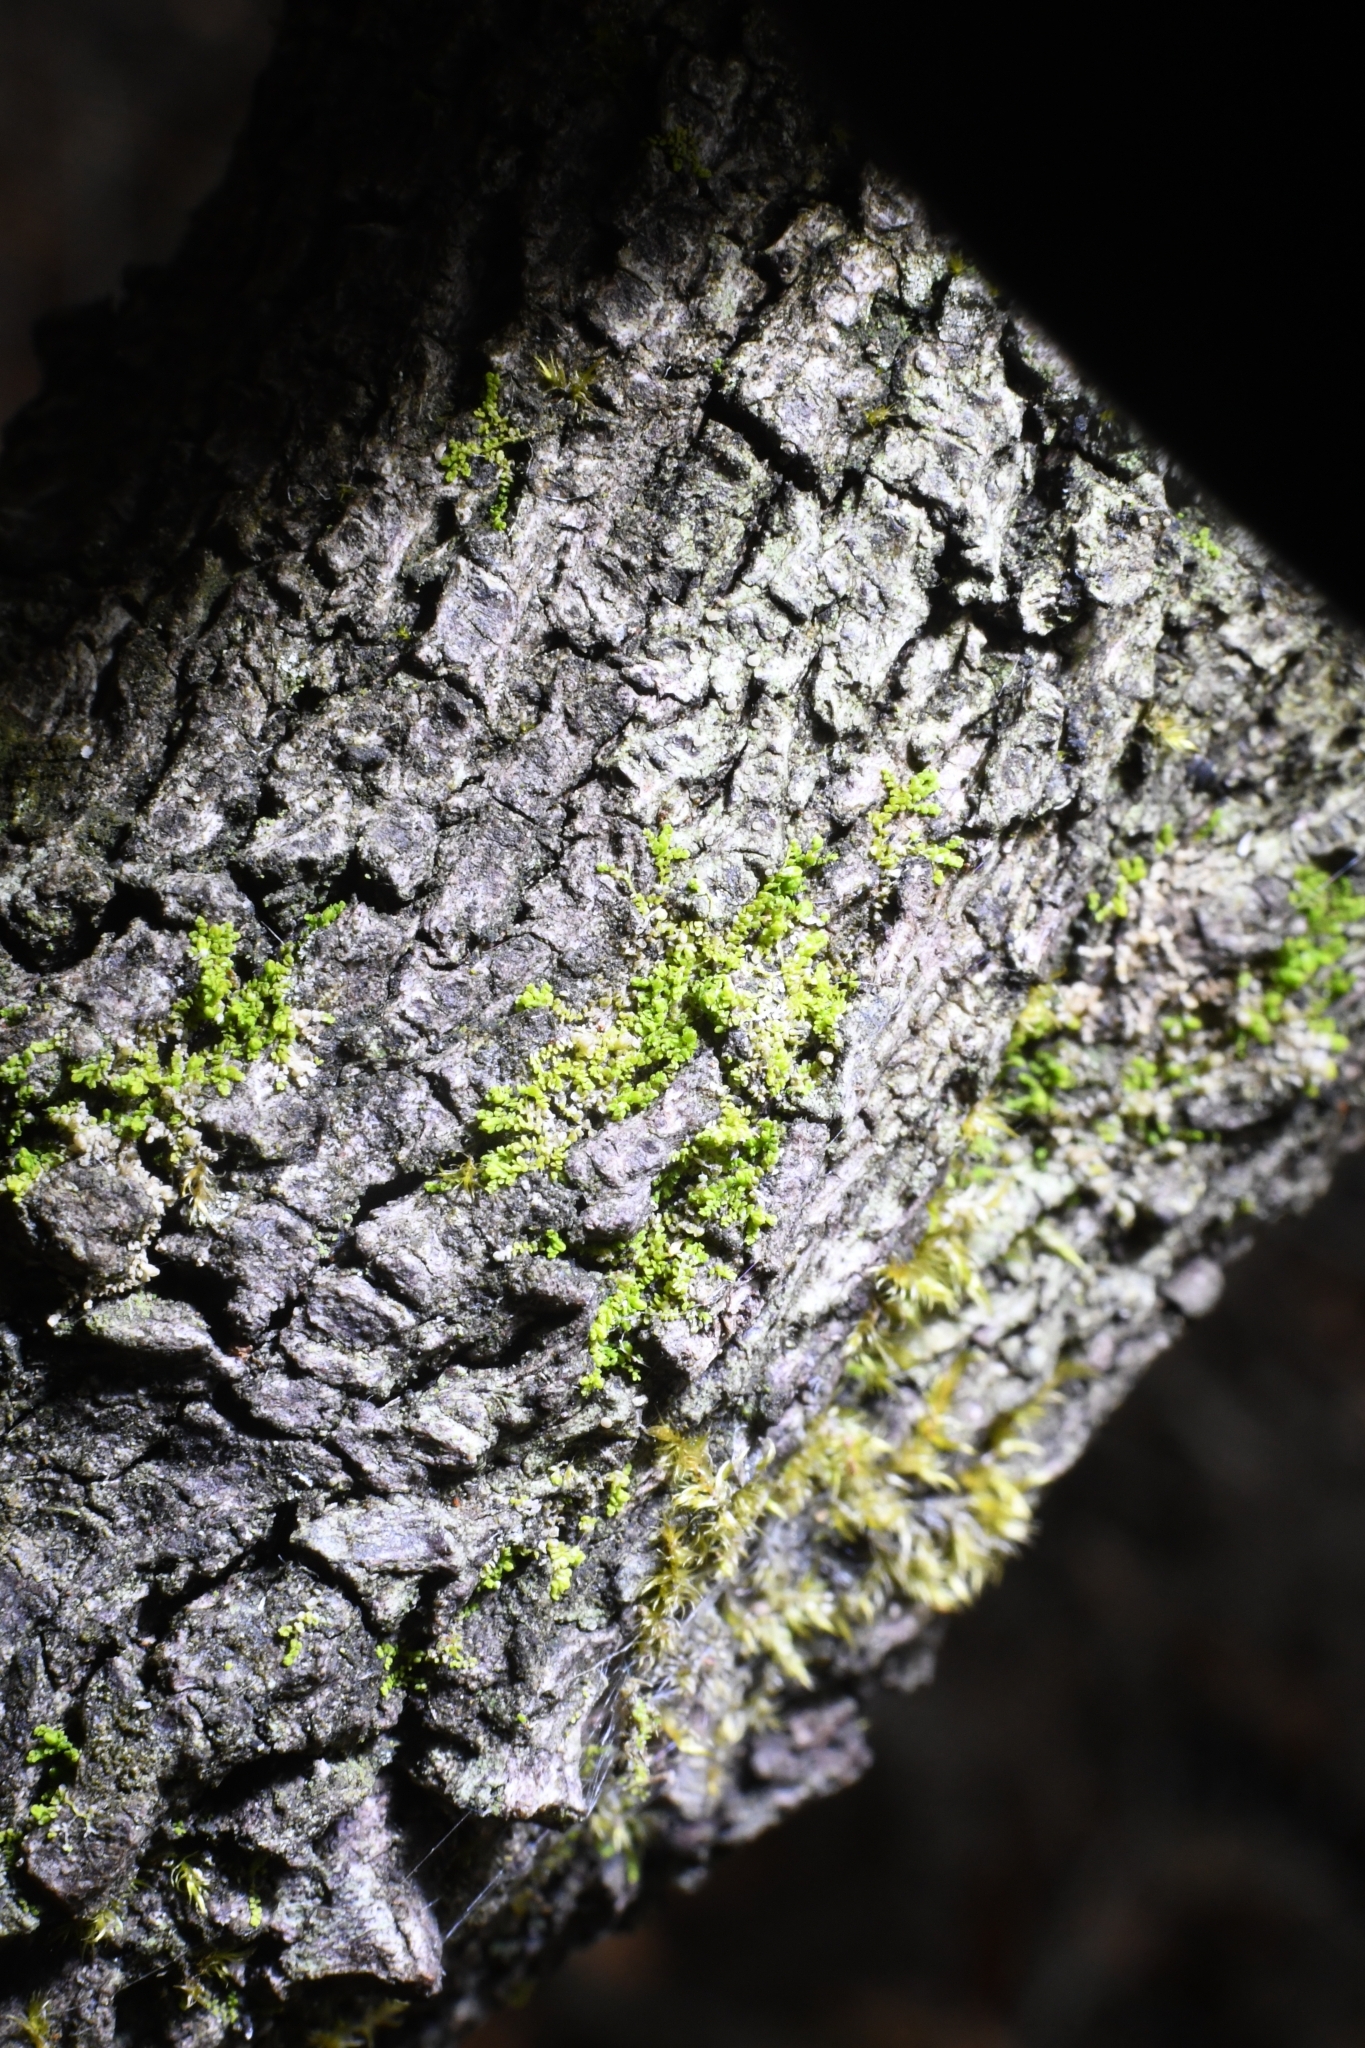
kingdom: Plantae
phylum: Marchantiophyta
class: Jungermanniopsida
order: Porellales
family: Lejeuneaceae
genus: Siphonolejeunea
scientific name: Siphonolejeunea occidentalis
